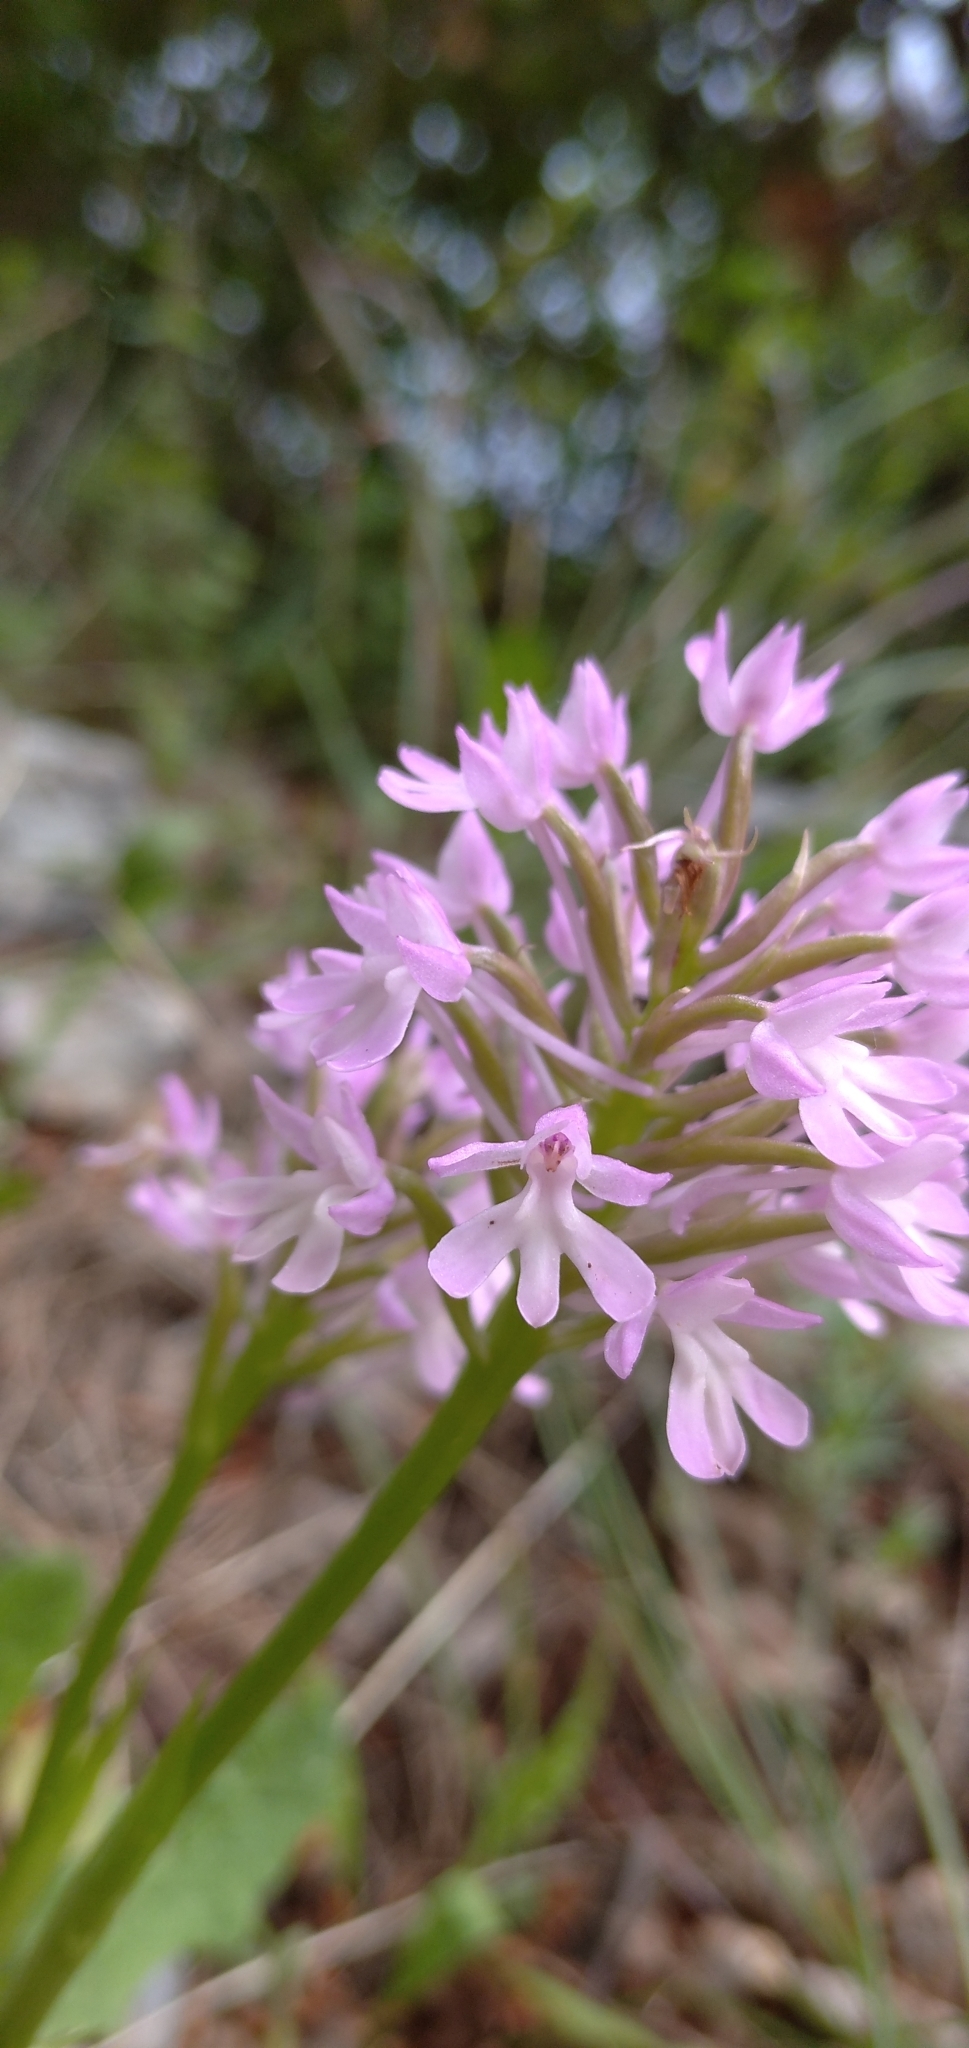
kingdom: Plantae
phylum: Tracheophyta
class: Liliopsida
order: Asparagales
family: Orchidaceae
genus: Anacamptis
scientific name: Anacamptis pyramidalis
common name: Pyramidal orchid
